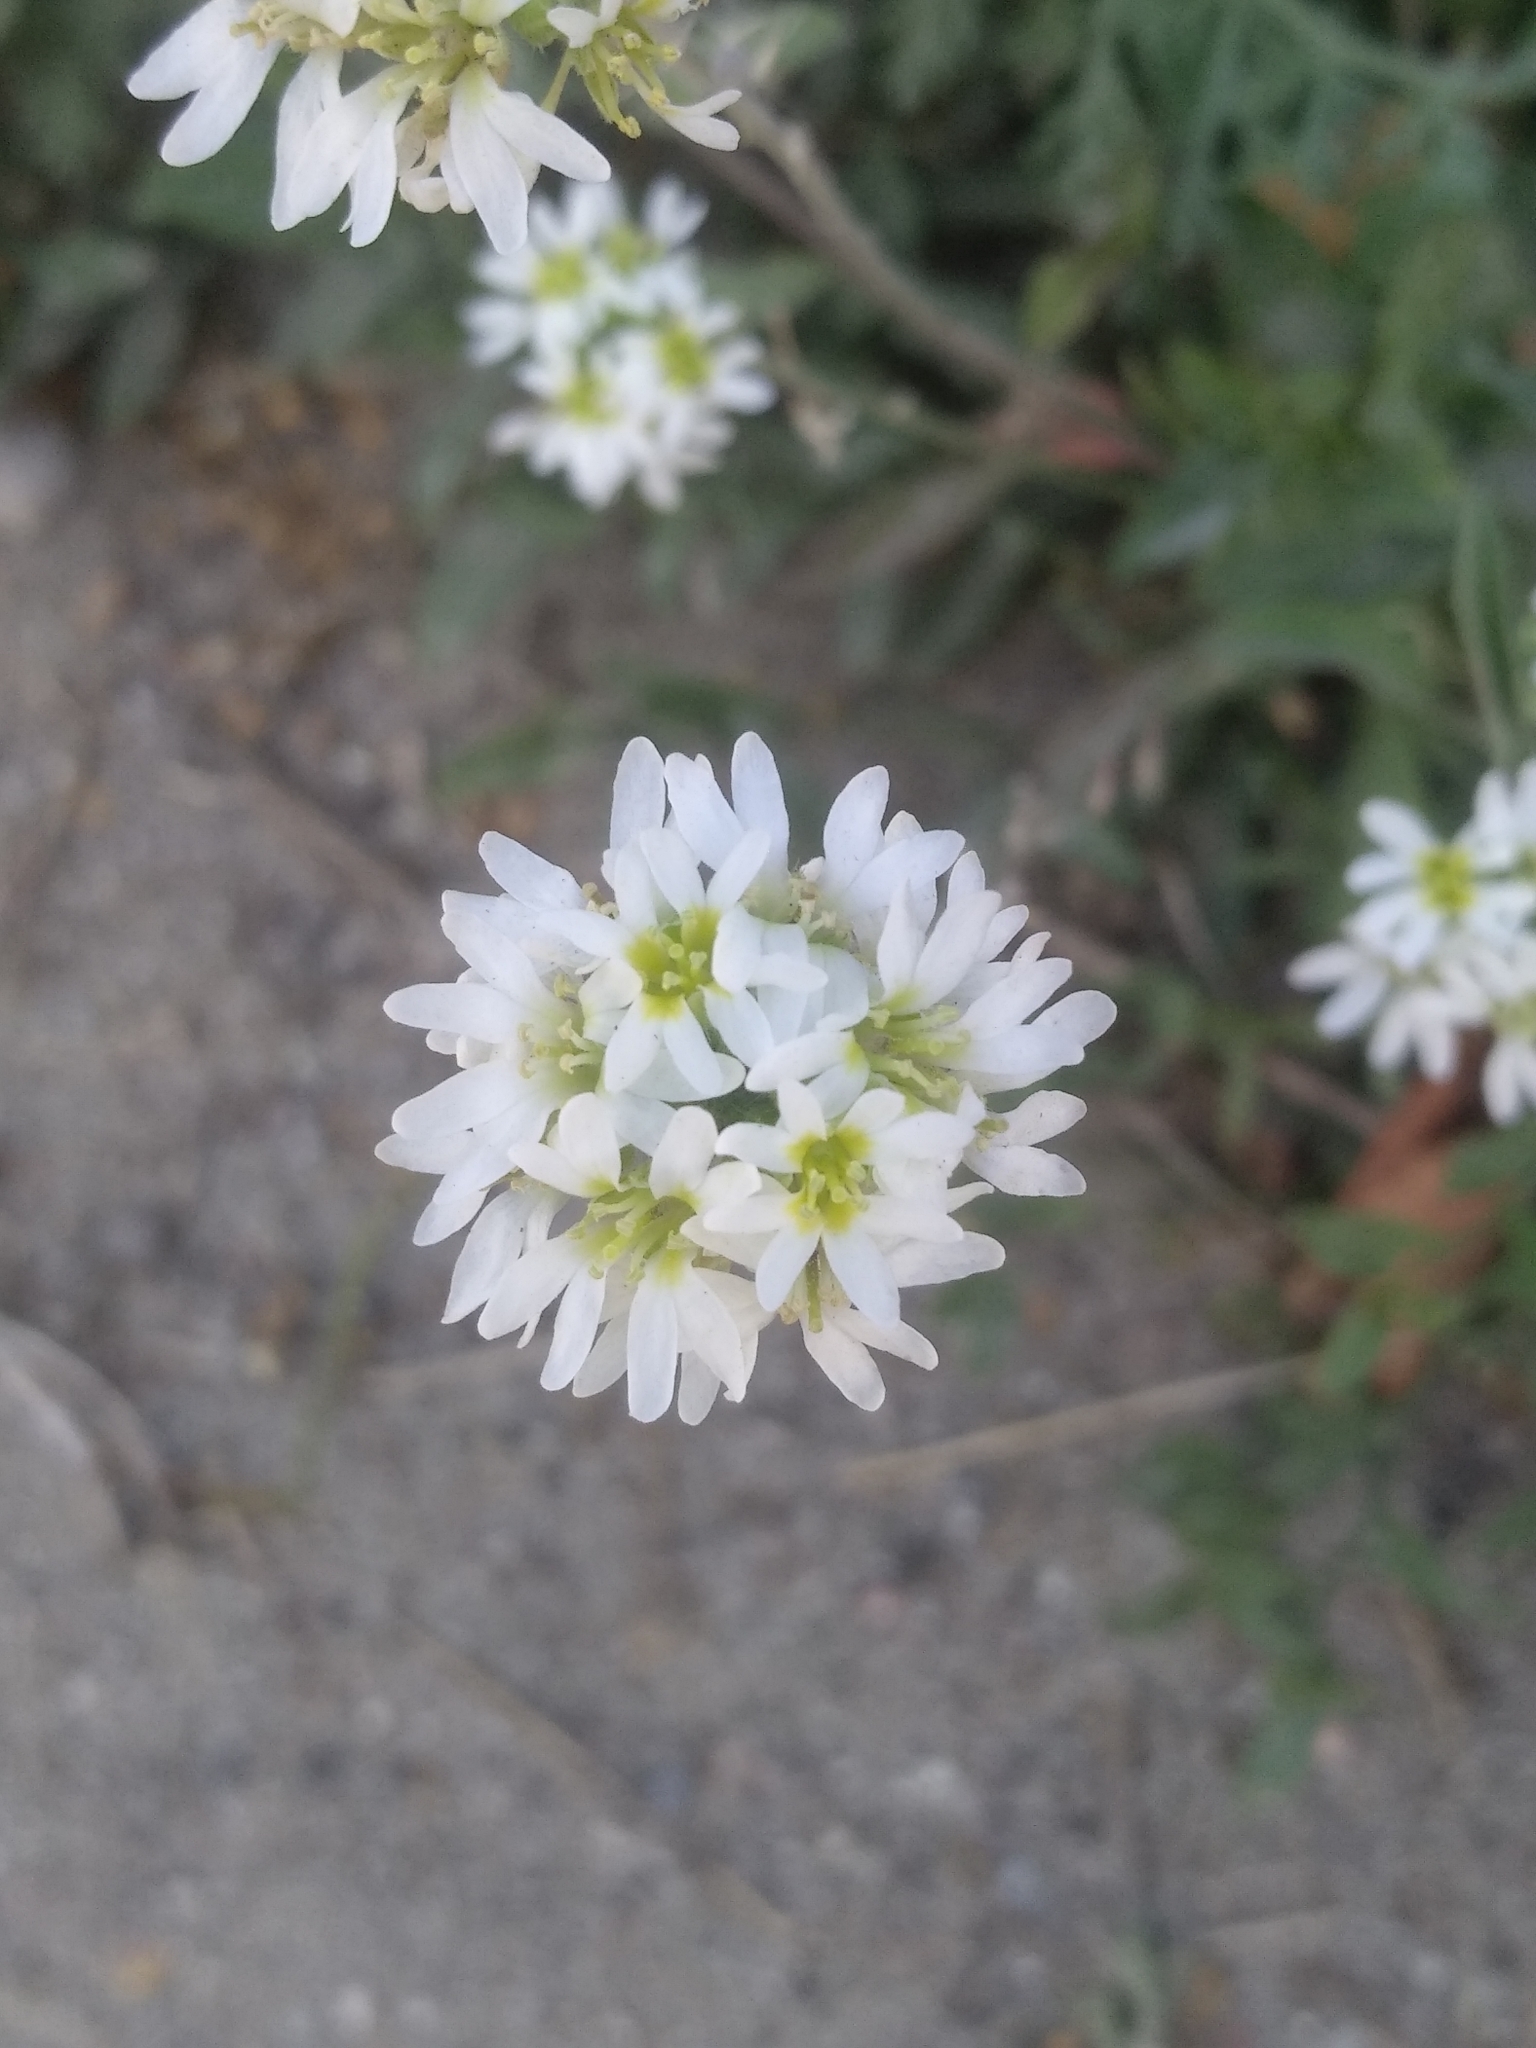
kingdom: Plantae
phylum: Tracheophyta
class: Magnoliopsida
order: Brassicales
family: Brassicaceae
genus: Berteroa
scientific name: Berteroa incana
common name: Hoary alison
